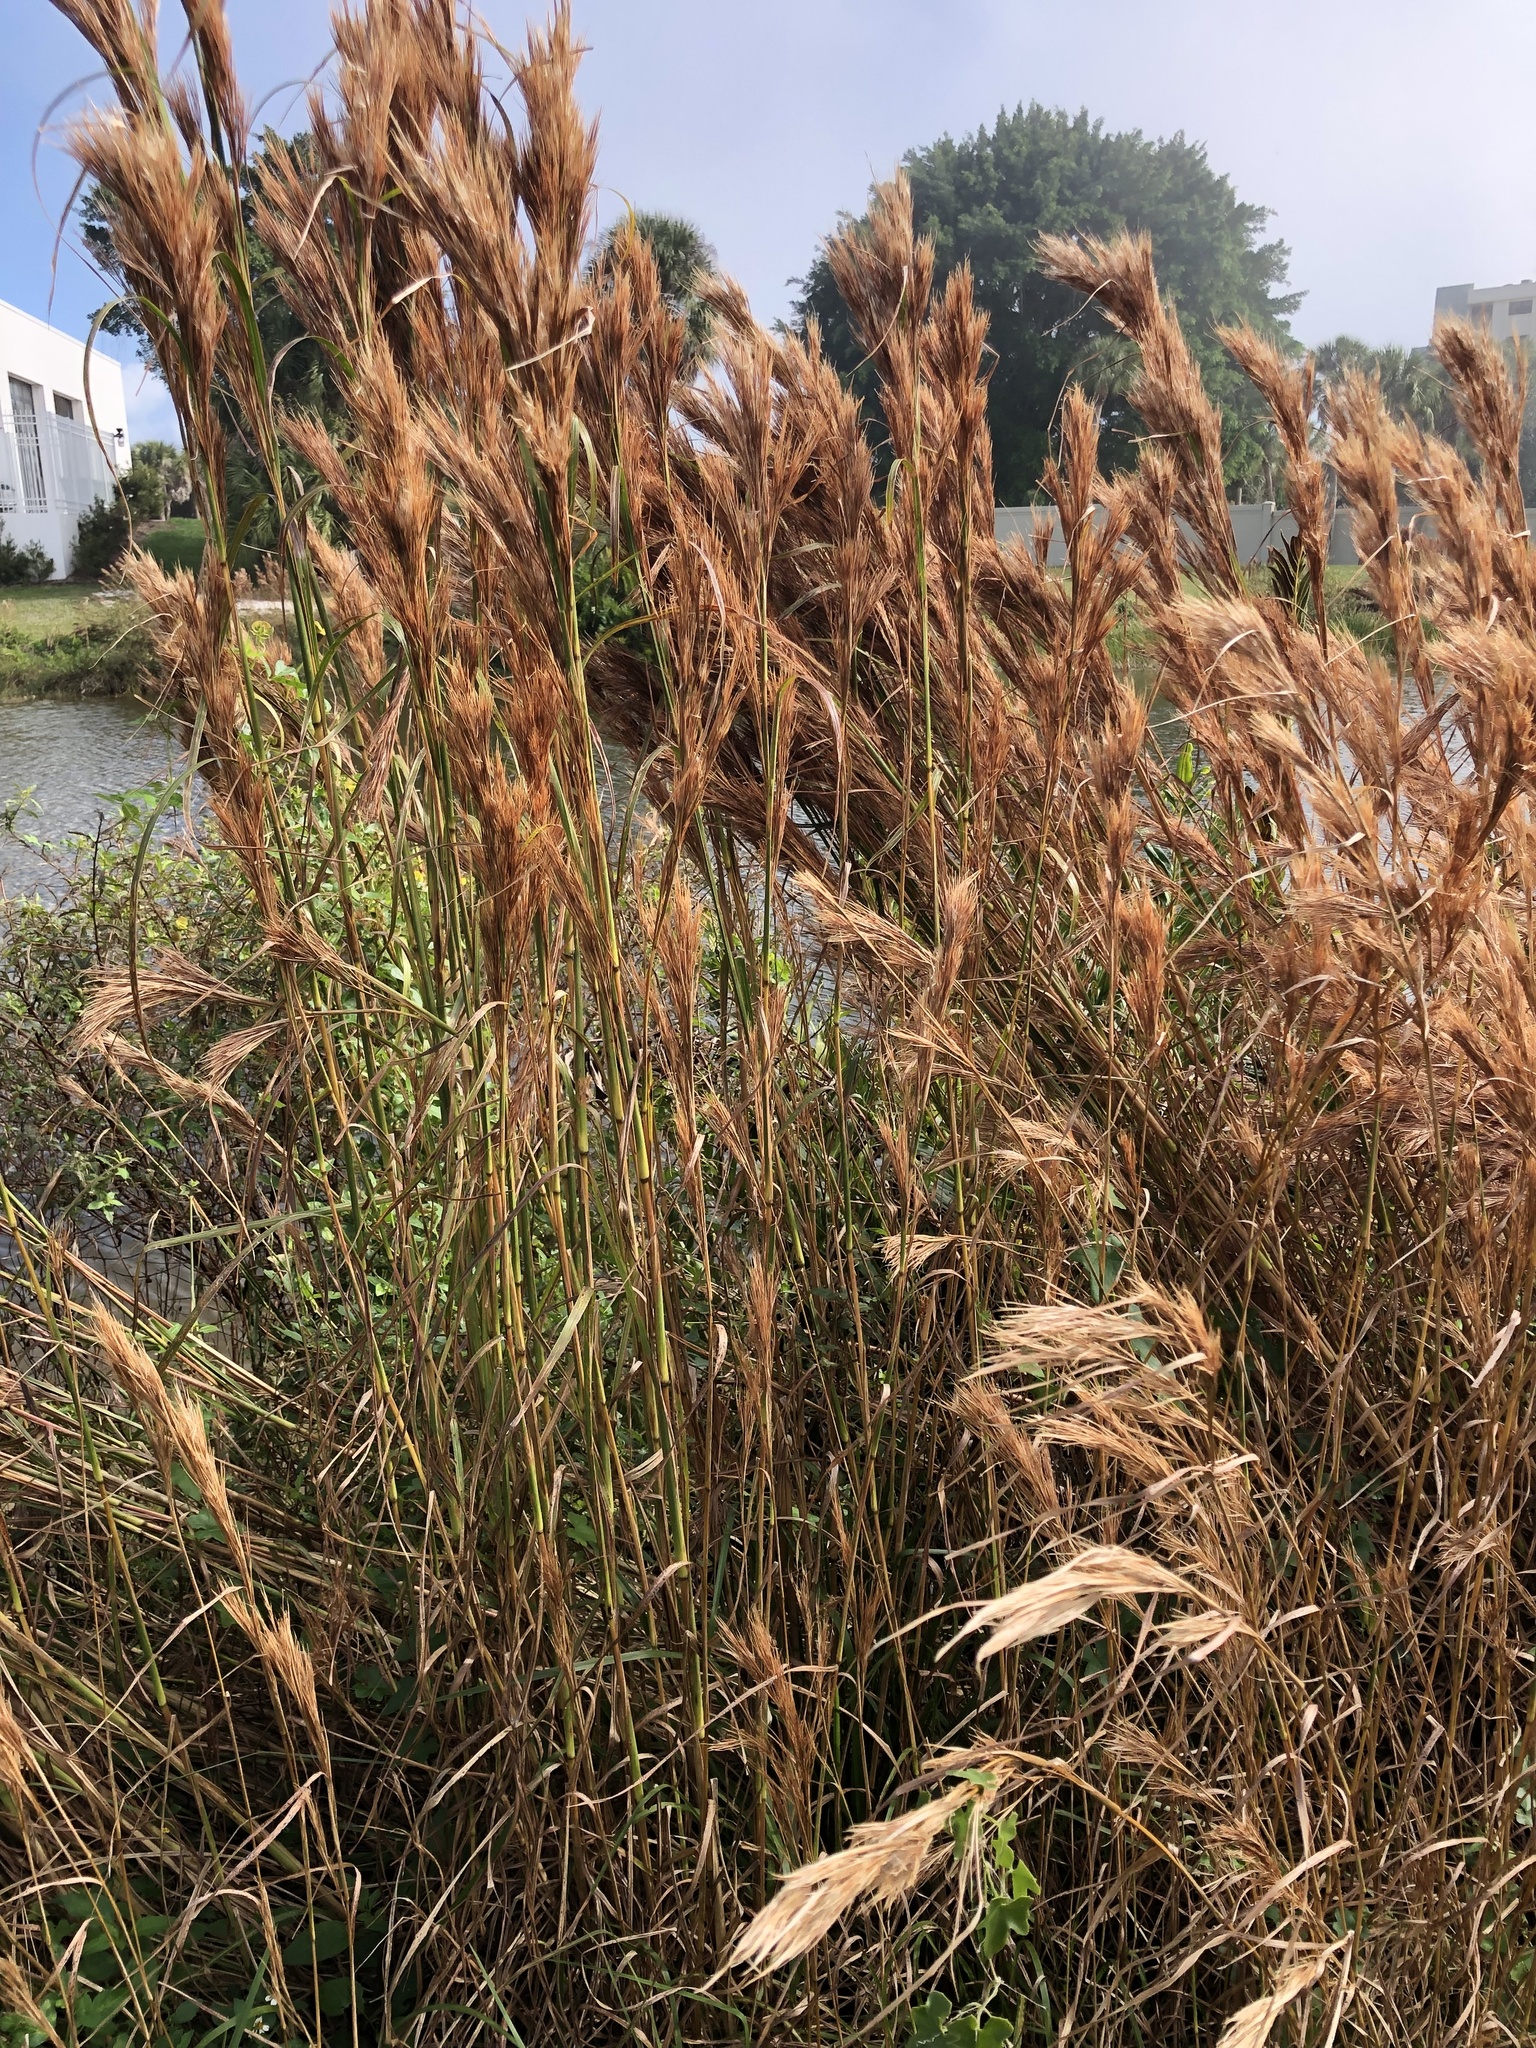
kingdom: Plantae
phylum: Tracheophyta
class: Liliopsida
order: Poales
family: Poaceae
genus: Andropogon
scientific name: Andropogon tenuispatheus
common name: Bushy bluestem
